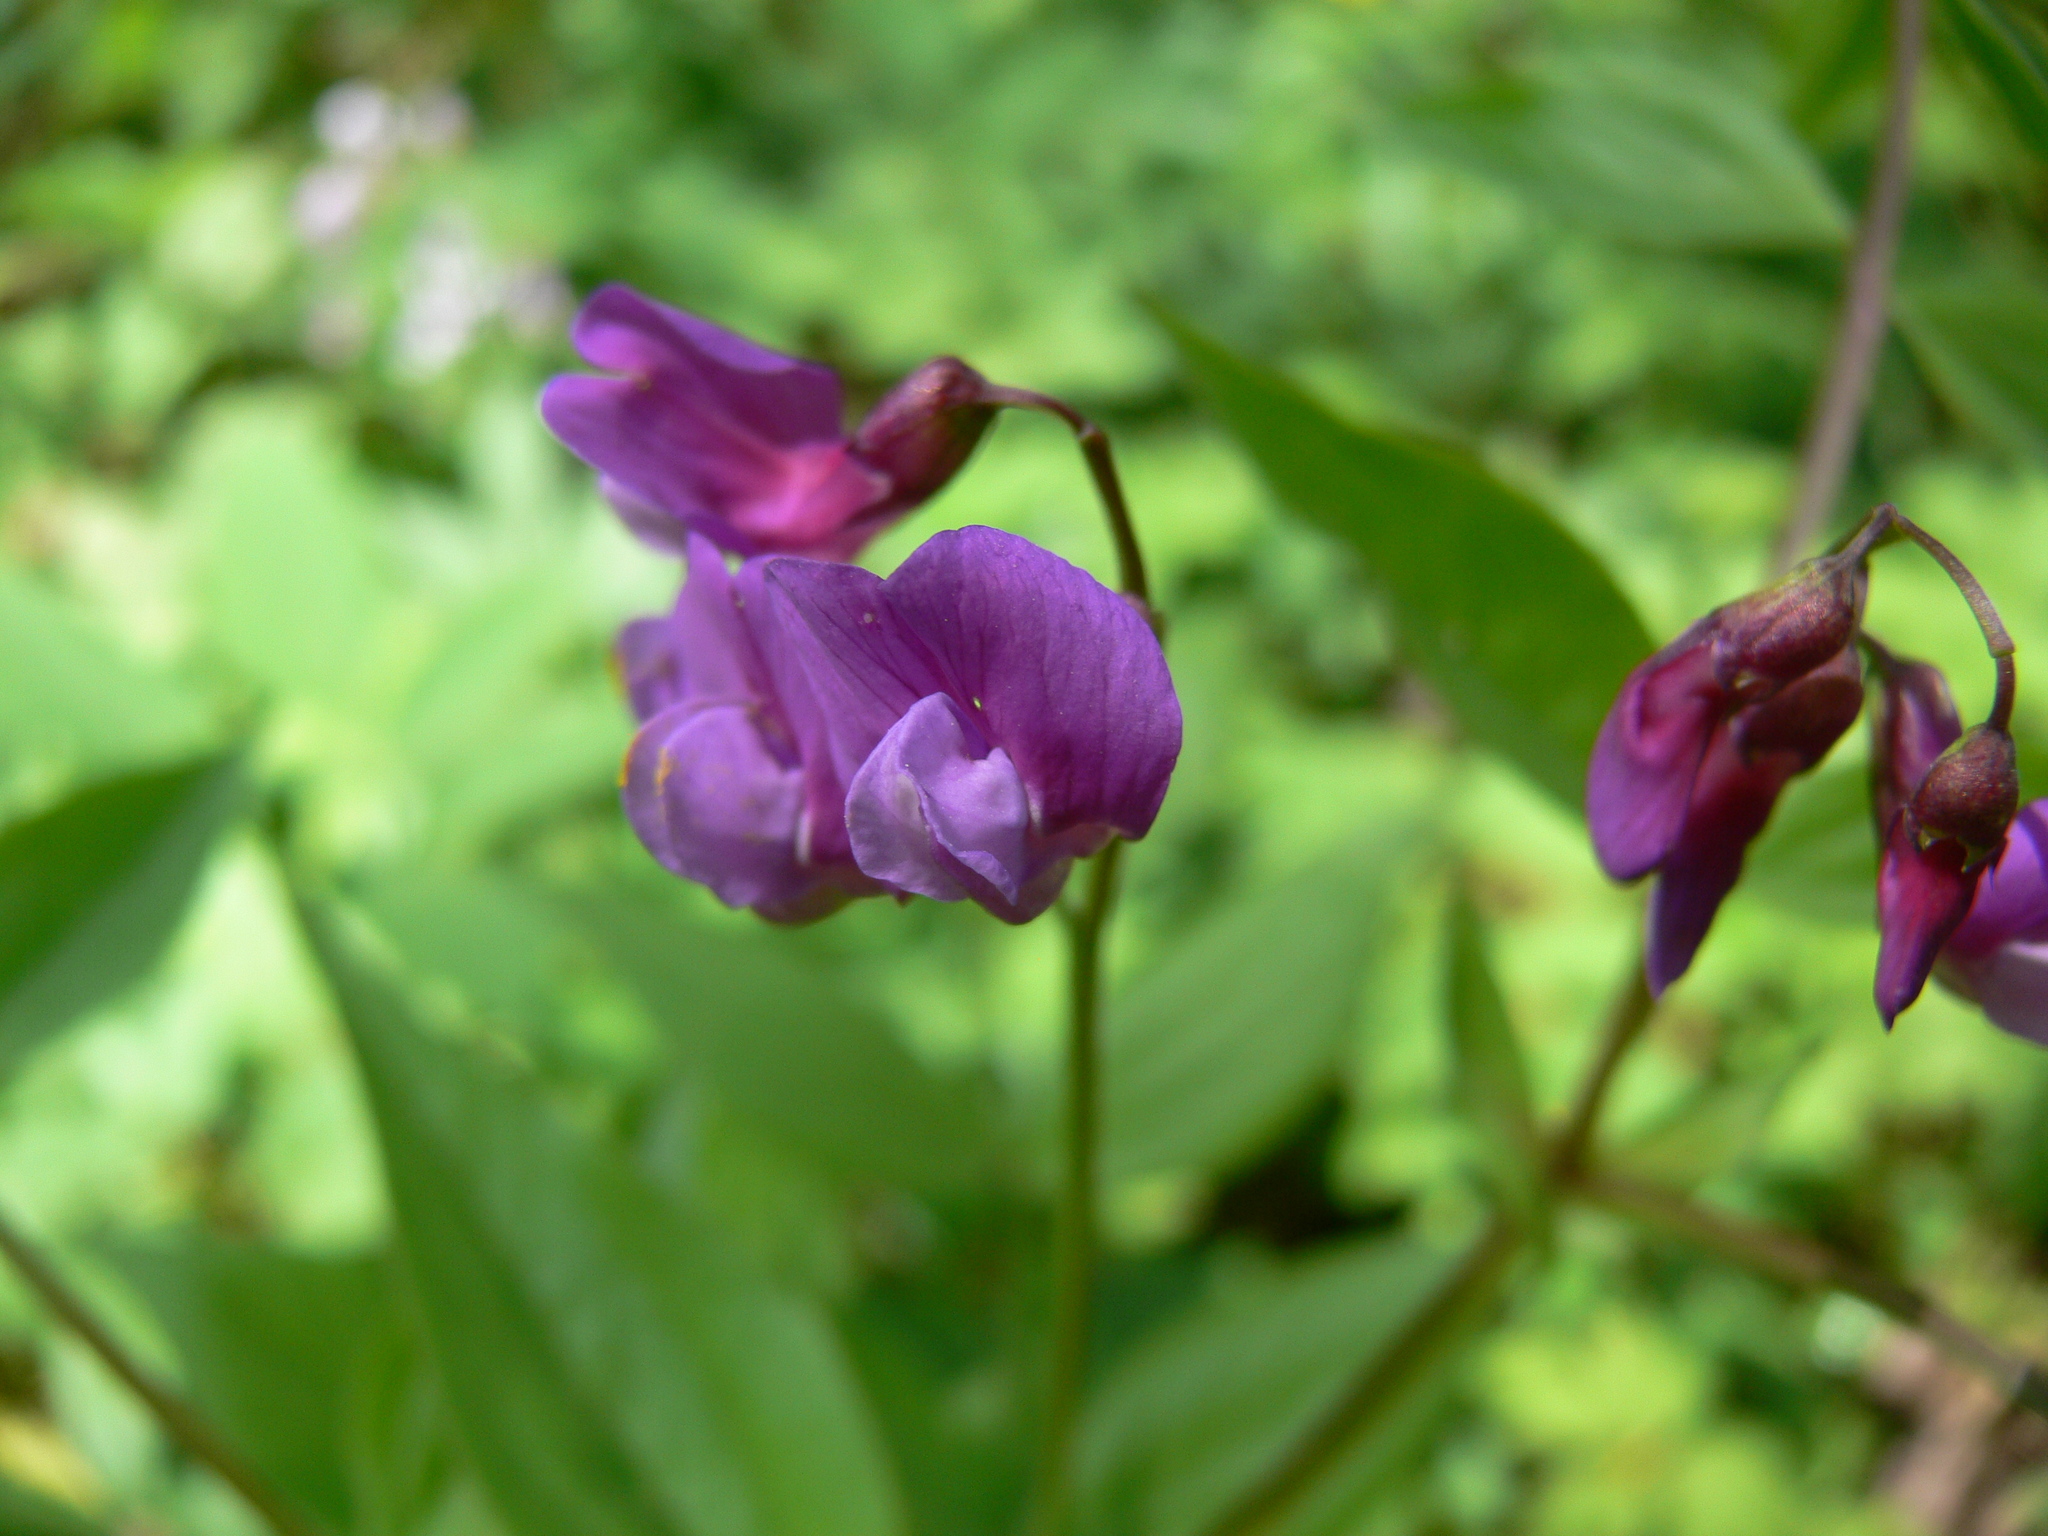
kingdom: Plantae
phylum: Tracheophyta
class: Magnoliopsida
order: Fabales
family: Fabaceae
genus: Lathyrus
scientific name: Lathyrus vernus
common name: Spring pea
